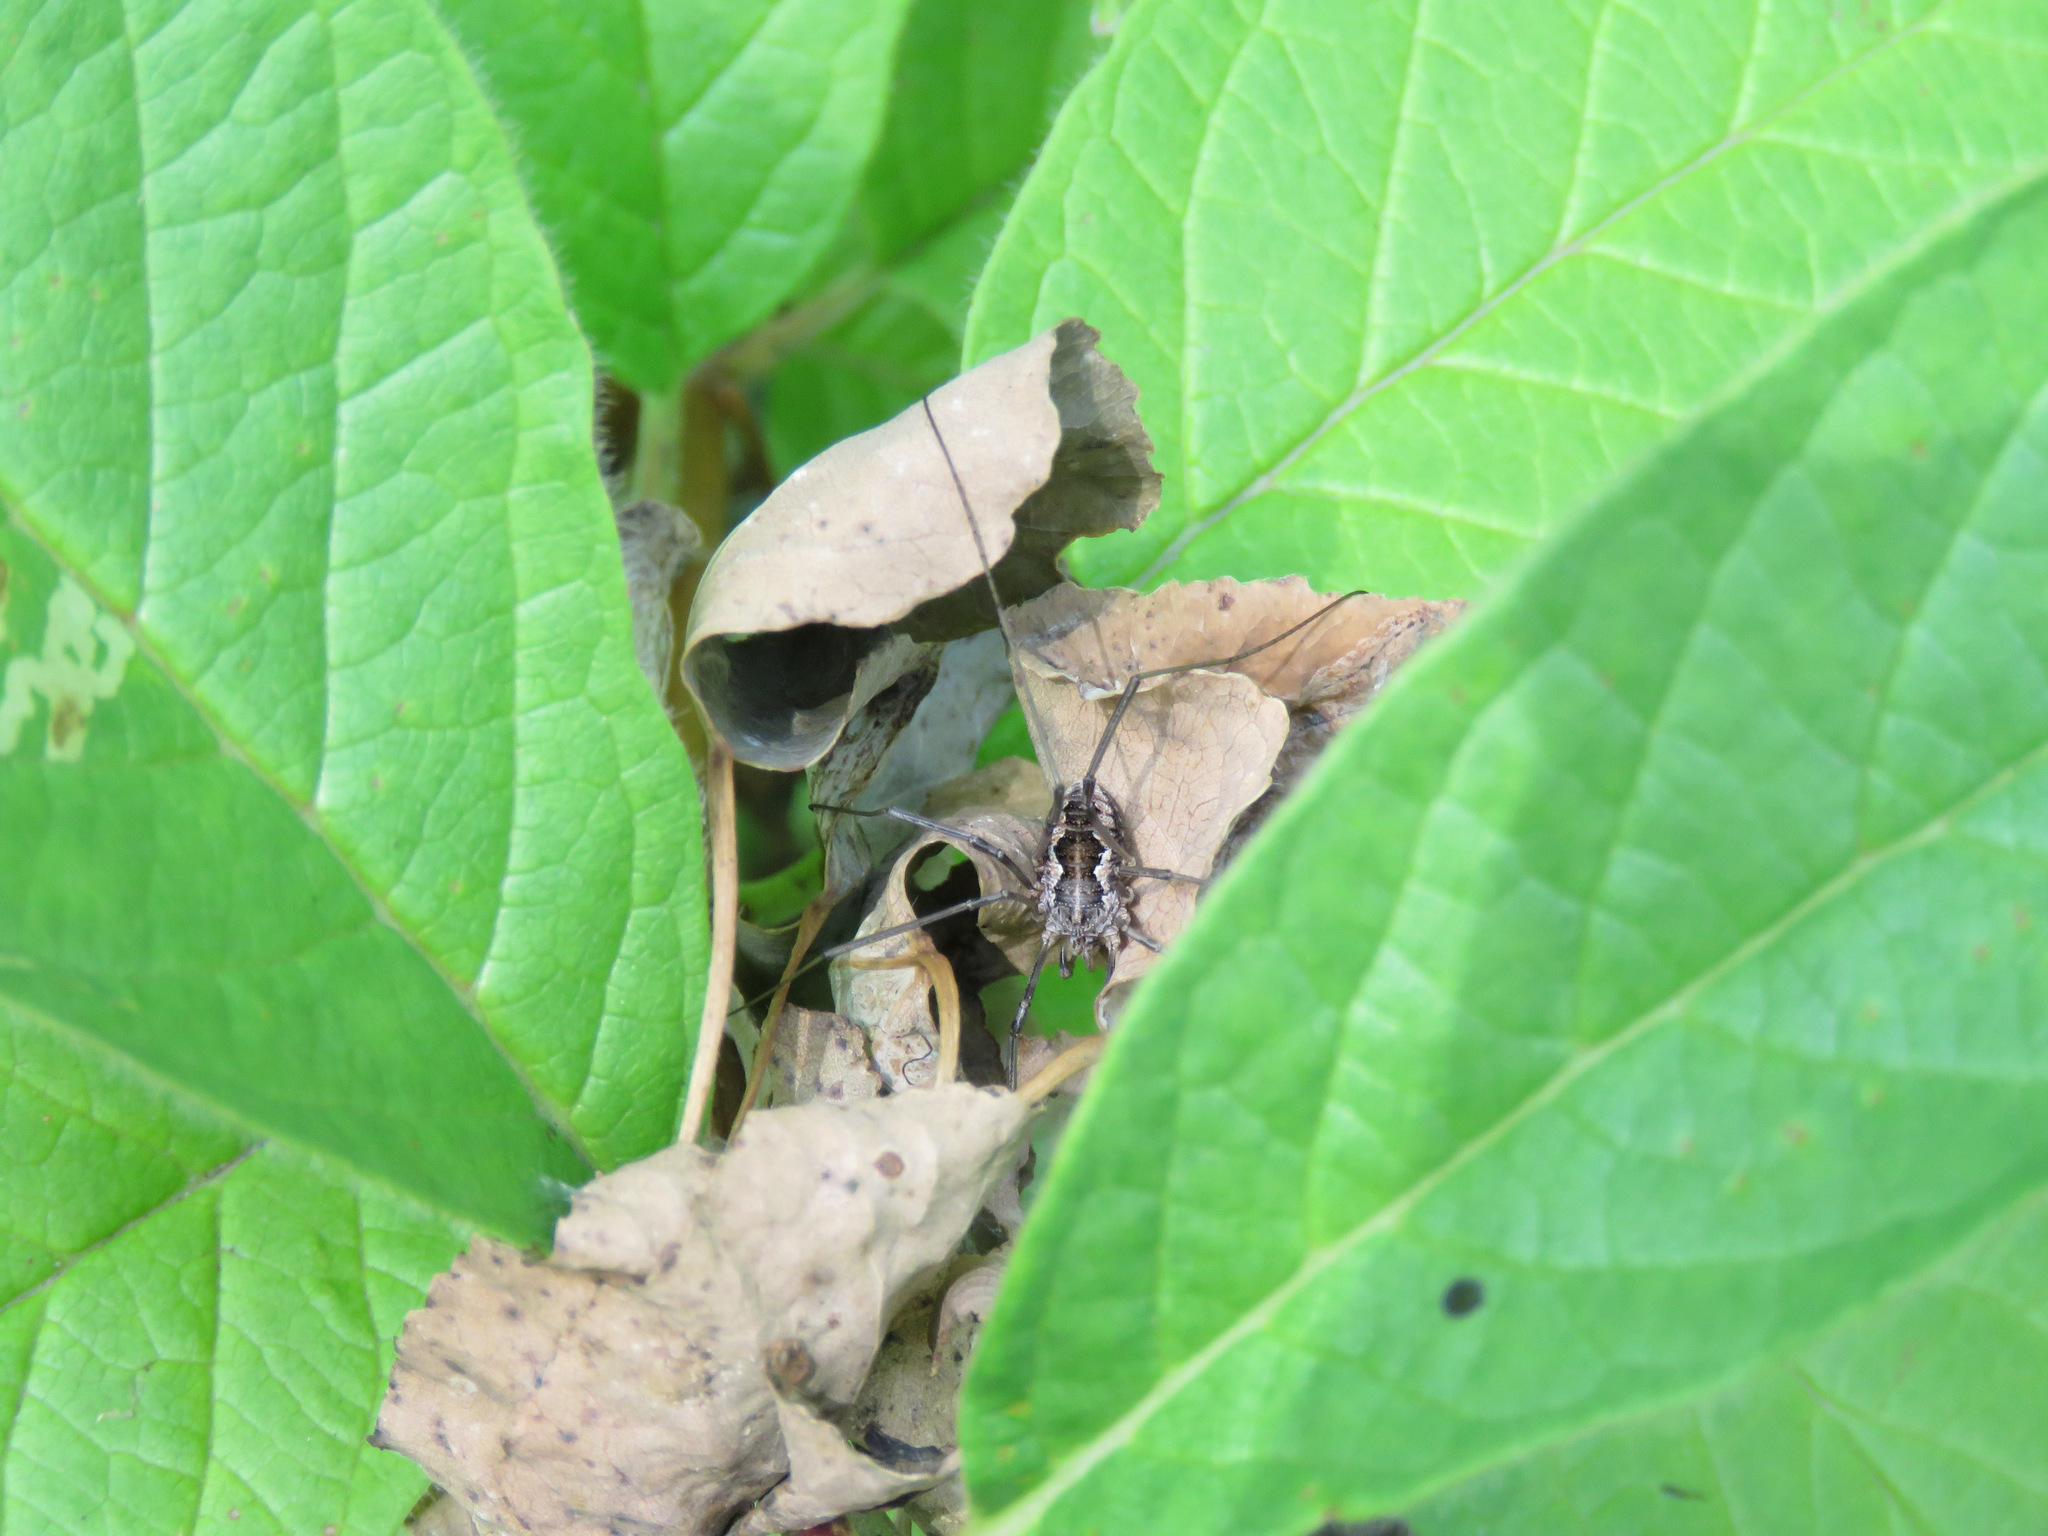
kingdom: Animalia
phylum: Arthropoda
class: Arachnida
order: Opiliones
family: Phalangiidae
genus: Phalangium
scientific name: Phalangium opilio
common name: Daddy longleg
